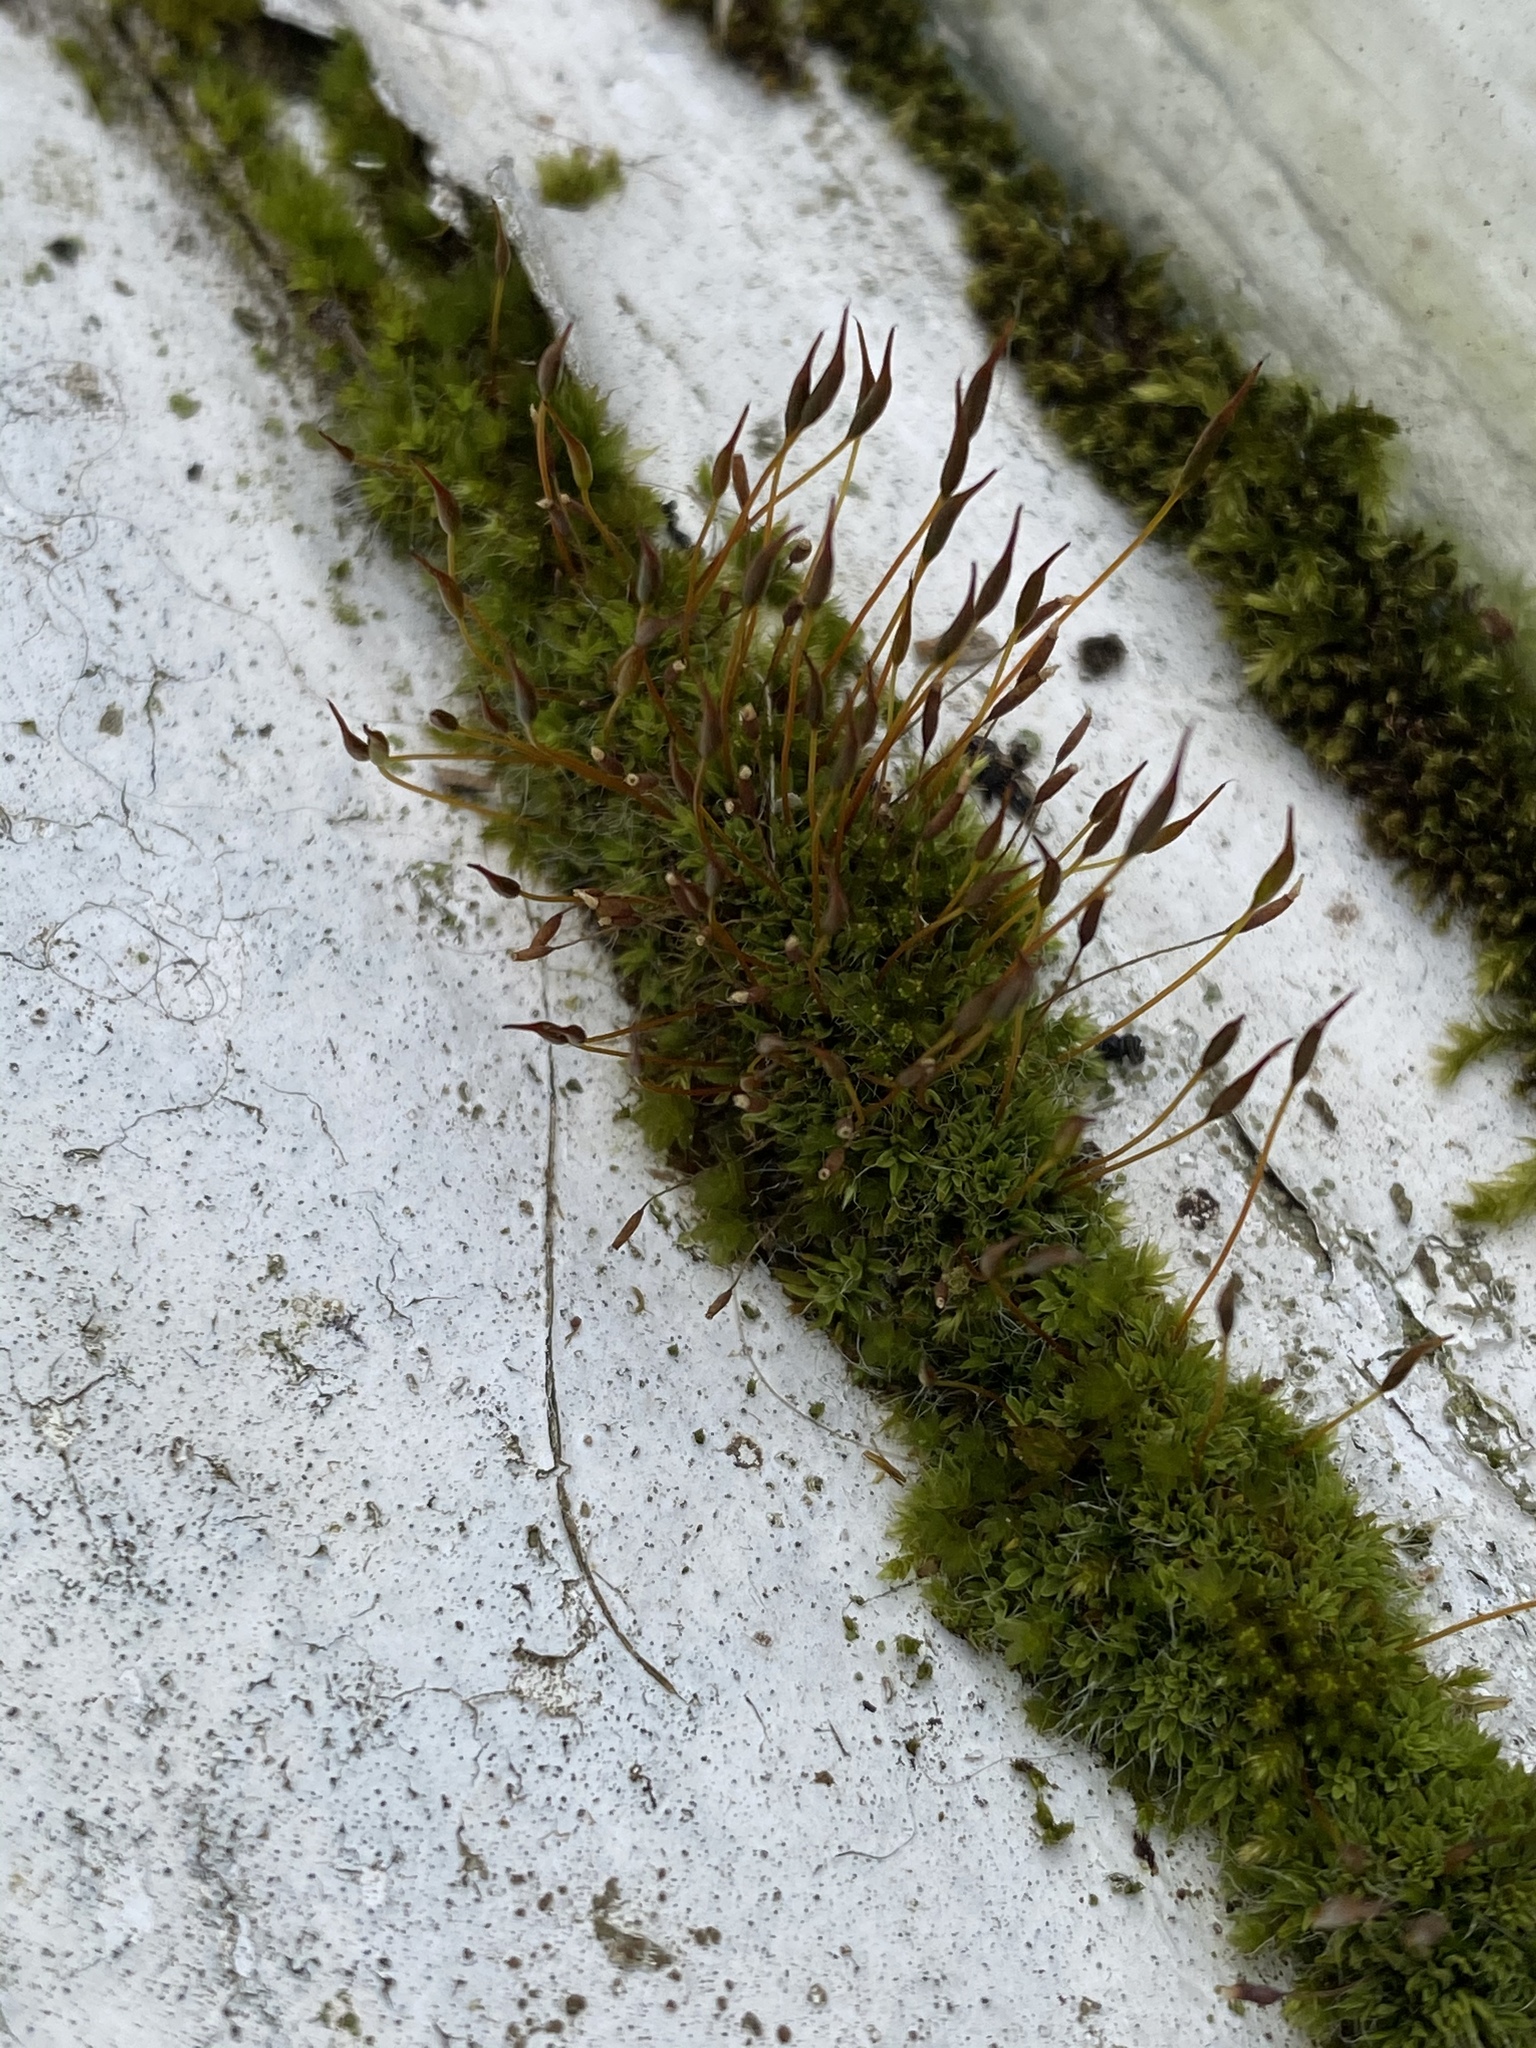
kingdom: Plantae
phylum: Bryophyta
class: Bryopsida
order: Pottiales
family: Pottiaceae
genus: Tortula
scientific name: Tortula muralis
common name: Wall screw-moss
